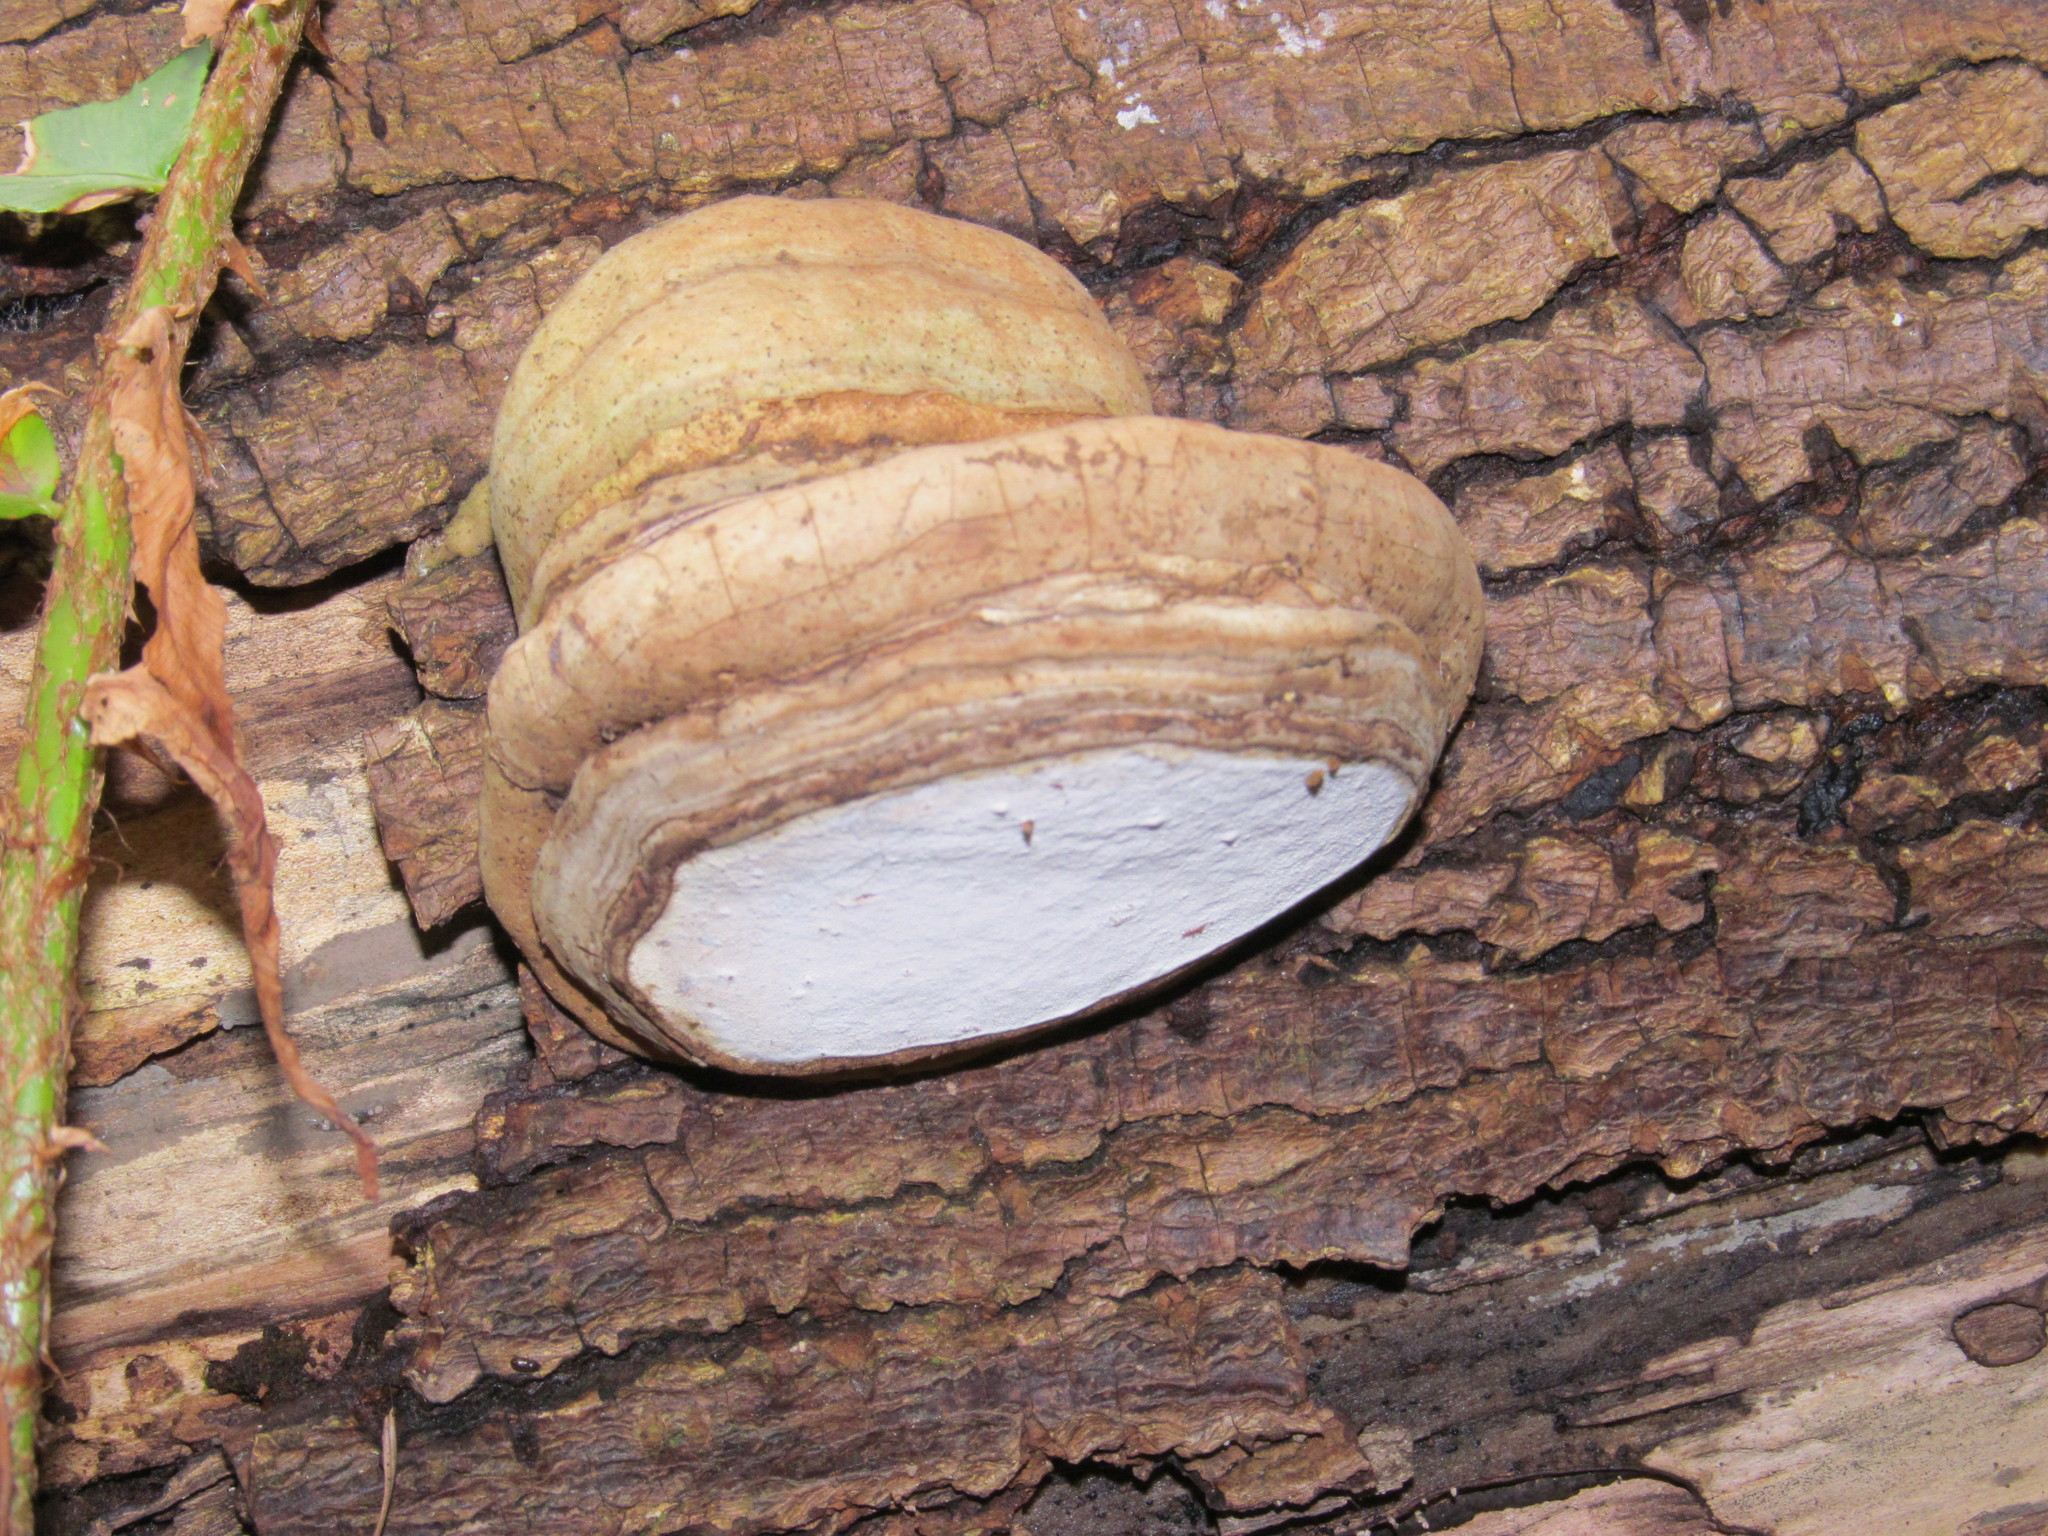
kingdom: Fungi
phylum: Basidiomycota
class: Agaricomycetes
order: Polyporales
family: Polyporaceae
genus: Ganoderma
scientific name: Ganoderma applanatum
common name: Artist's bracket
